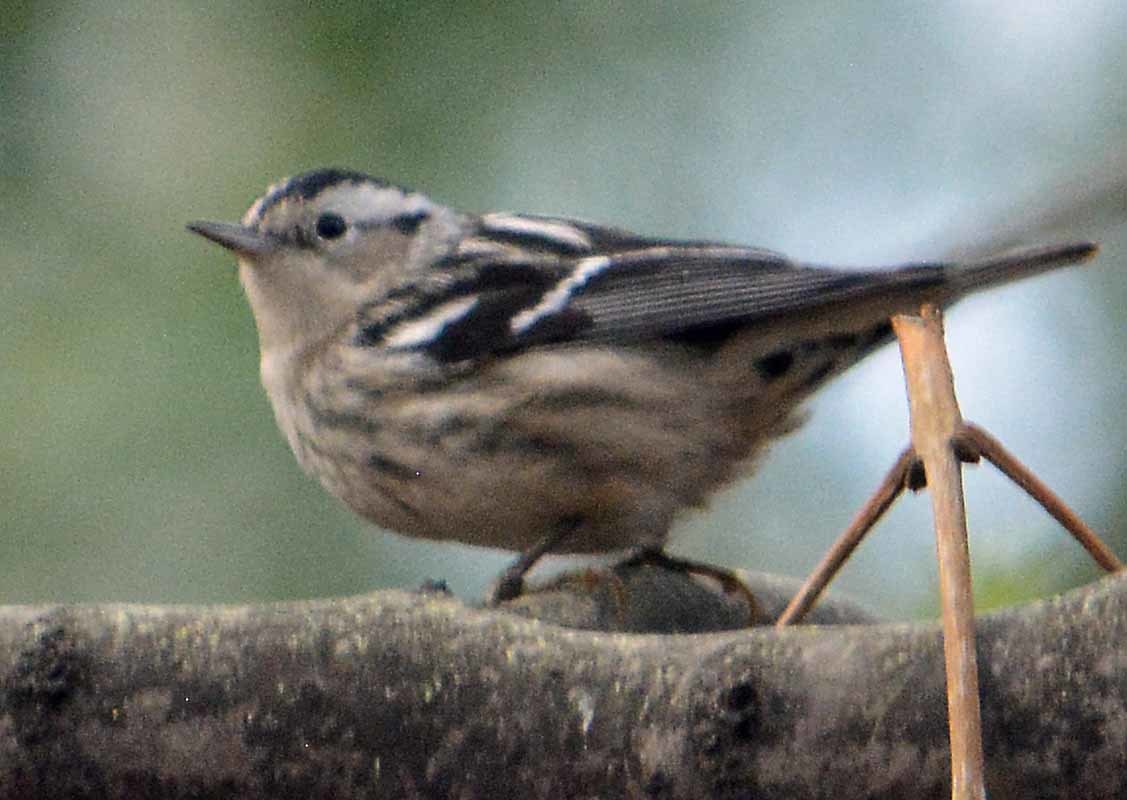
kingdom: Animalia
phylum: Chordata
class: Aves
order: Passeriformes
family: Parulidae
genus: Mniotilta
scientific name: Mniotilta varia
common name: Black-and-white warbler
